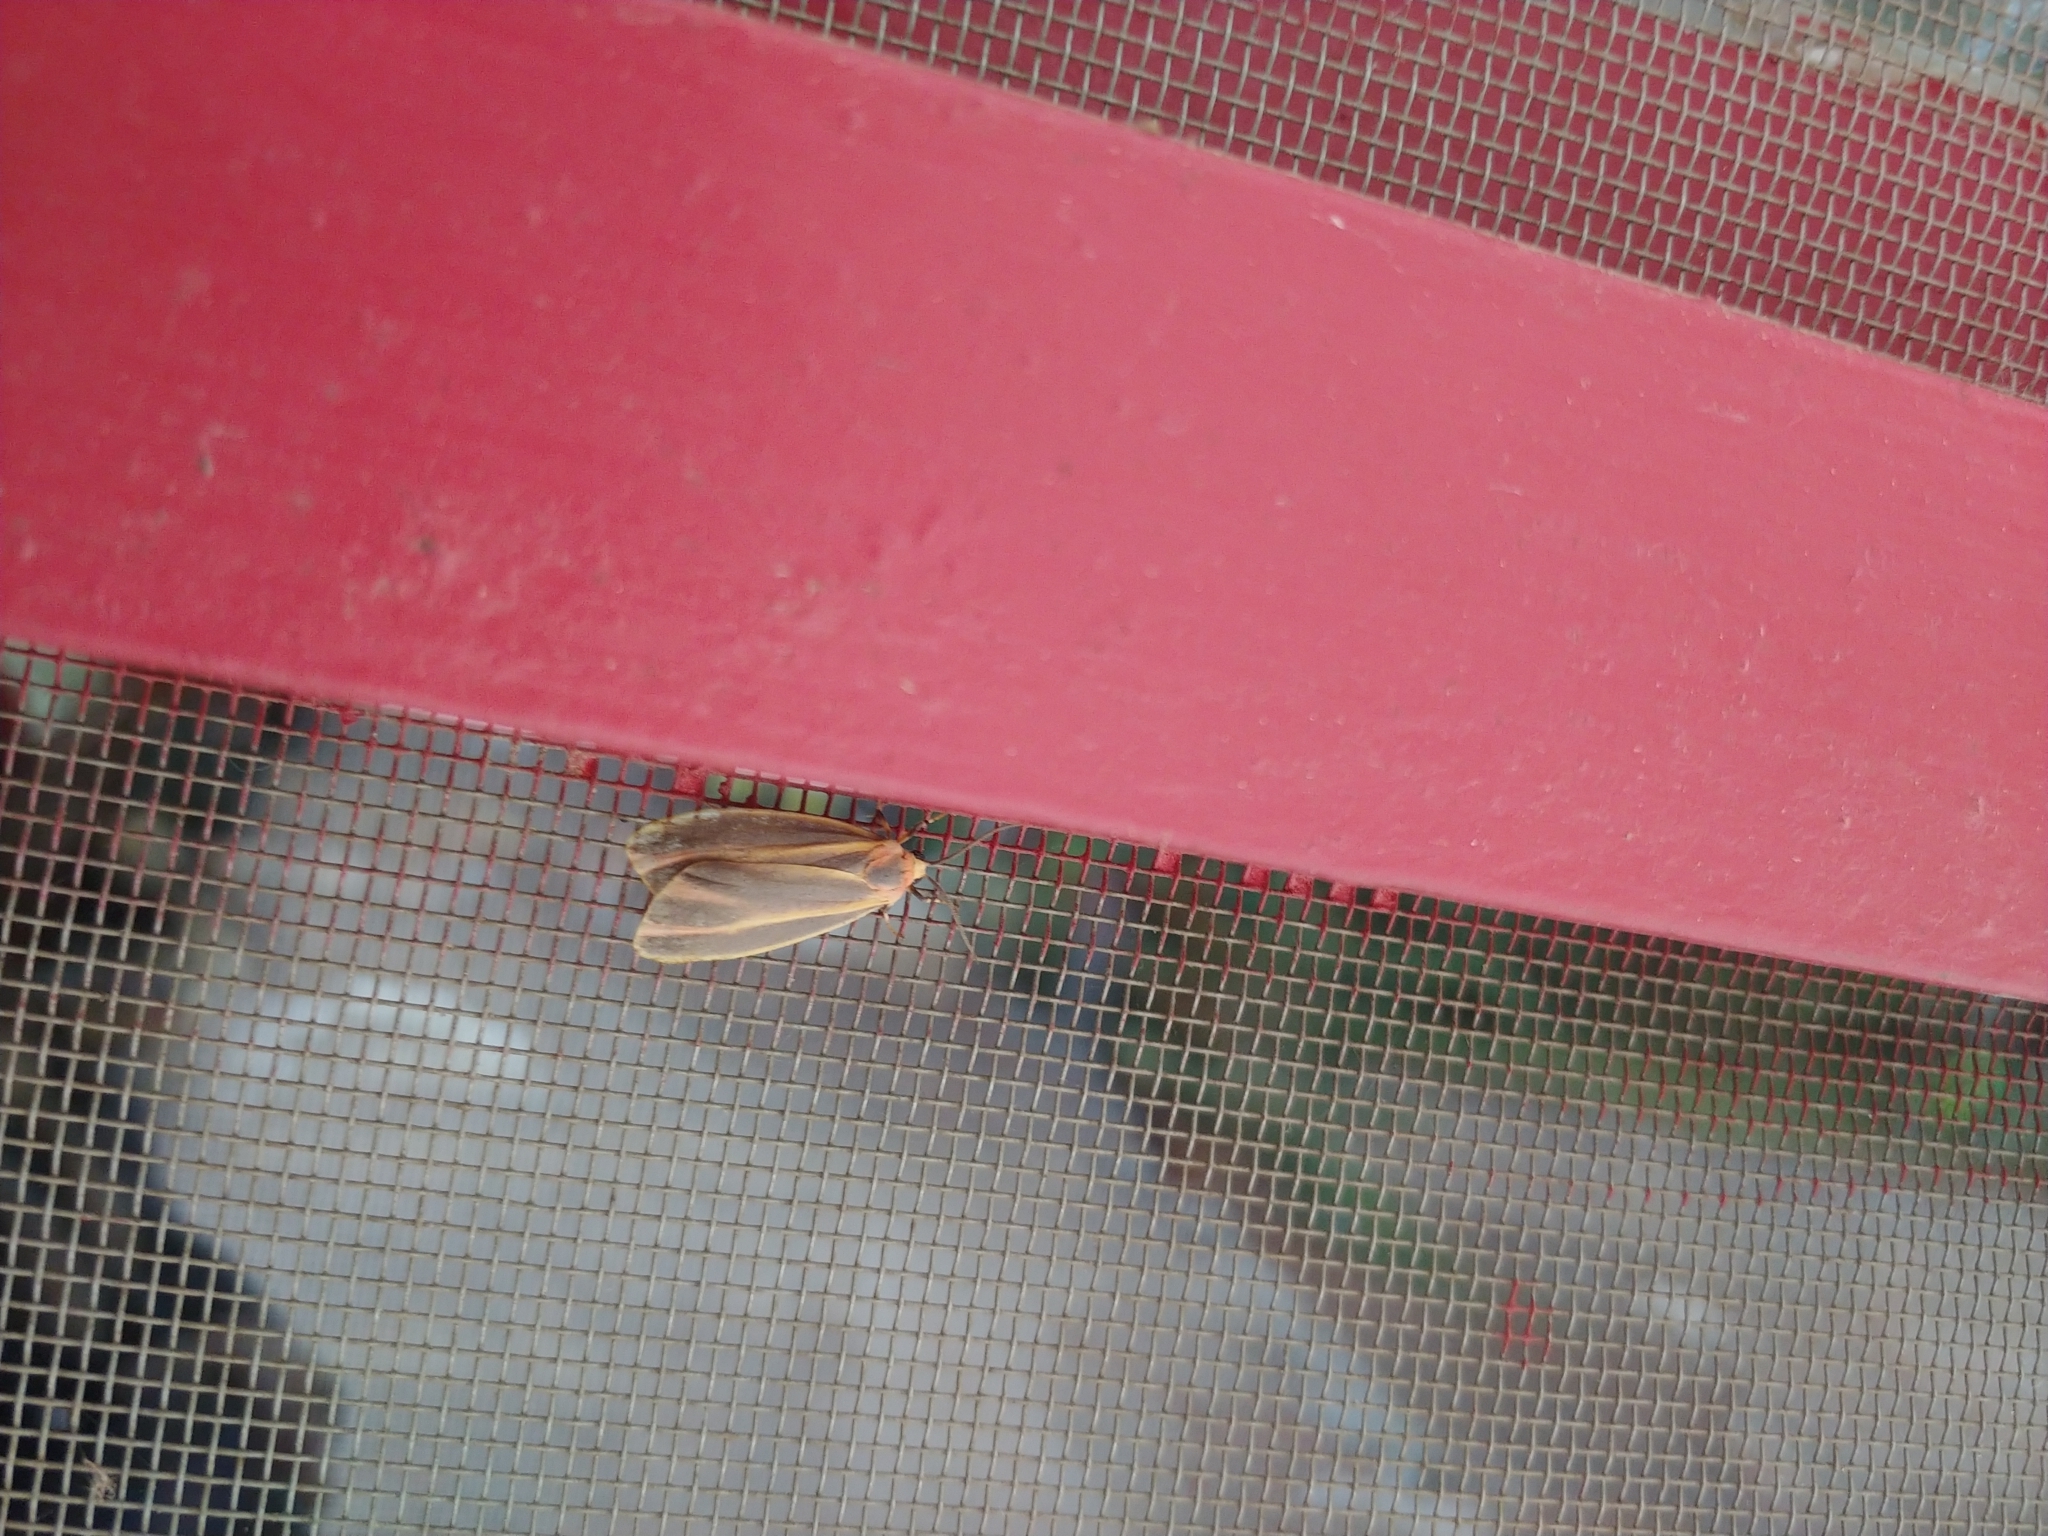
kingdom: Animalia
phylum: Arthropoda
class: Insecta
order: Lepidoptera
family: Erebidae
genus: Hypoprepia
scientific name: Hypoprepia fucosa
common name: Painted lichen moth
